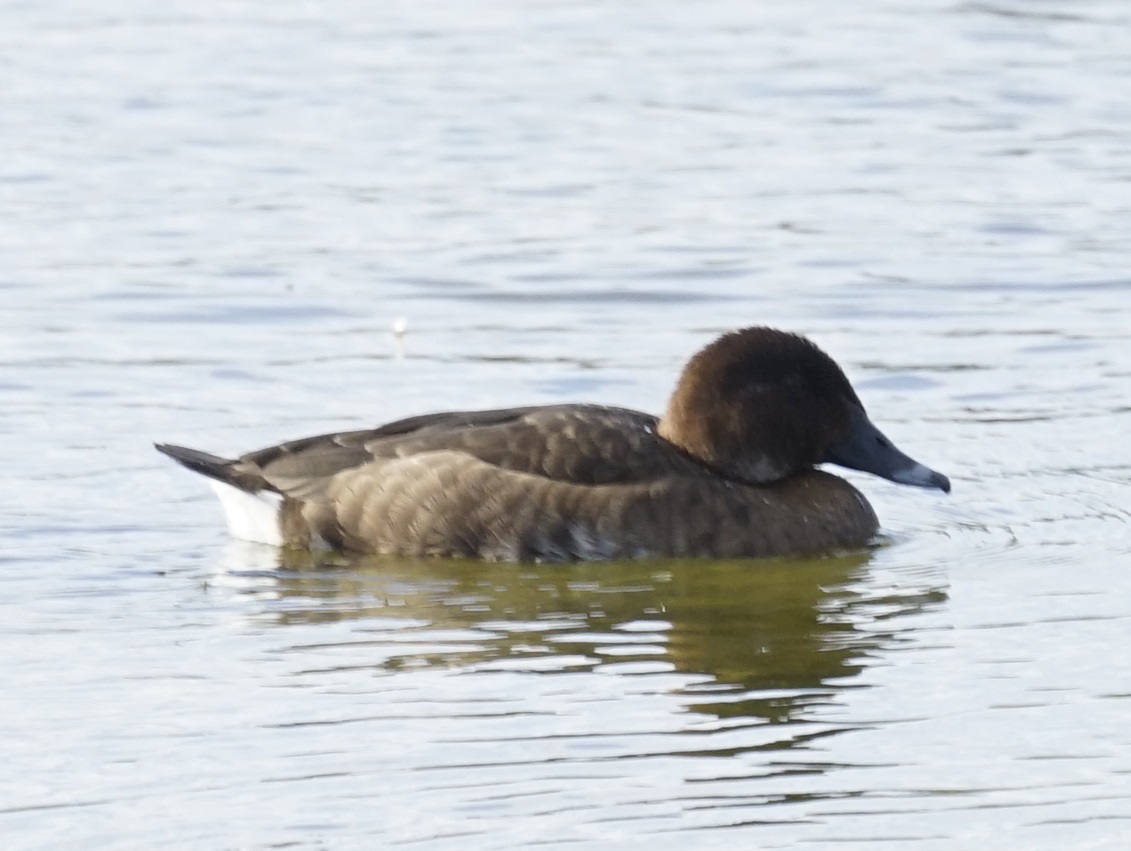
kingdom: Animalia
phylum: Chordata
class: Aves
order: Anseriformes
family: Anatidae
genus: Aythya
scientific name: Aythya australis
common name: Hardhead
